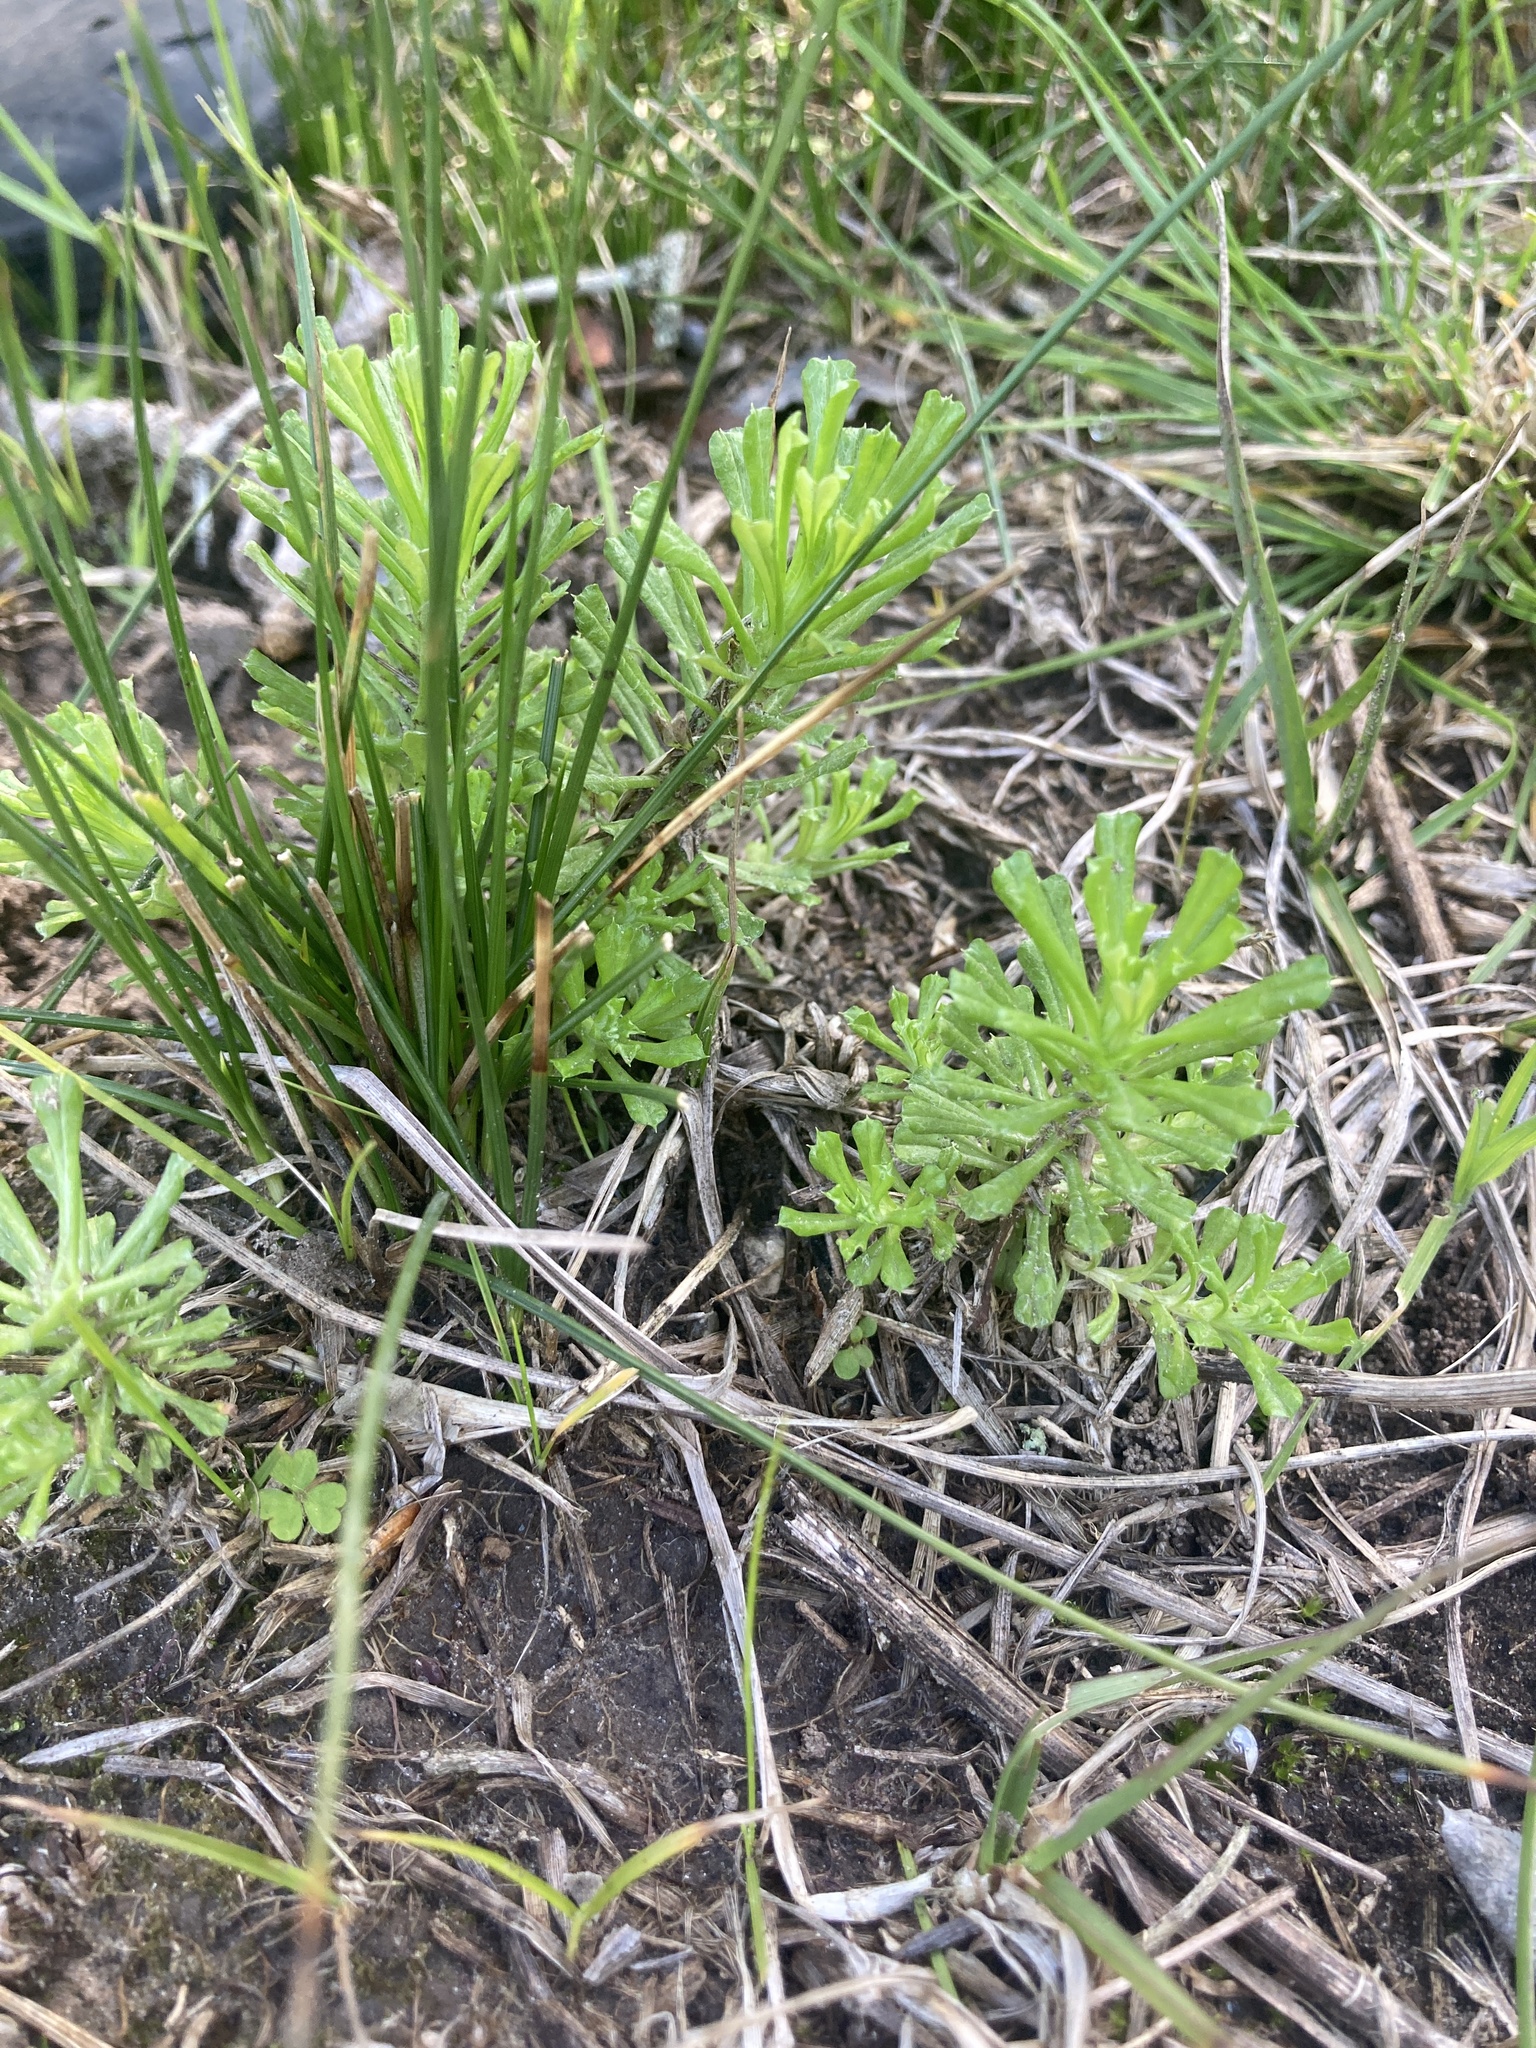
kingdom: Plantae
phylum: Tracheophyta
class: Magnoliopsida
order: Asterales
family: Asteraceae
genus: Facelis
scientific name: Facelis retusa
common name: Annual trampweed
